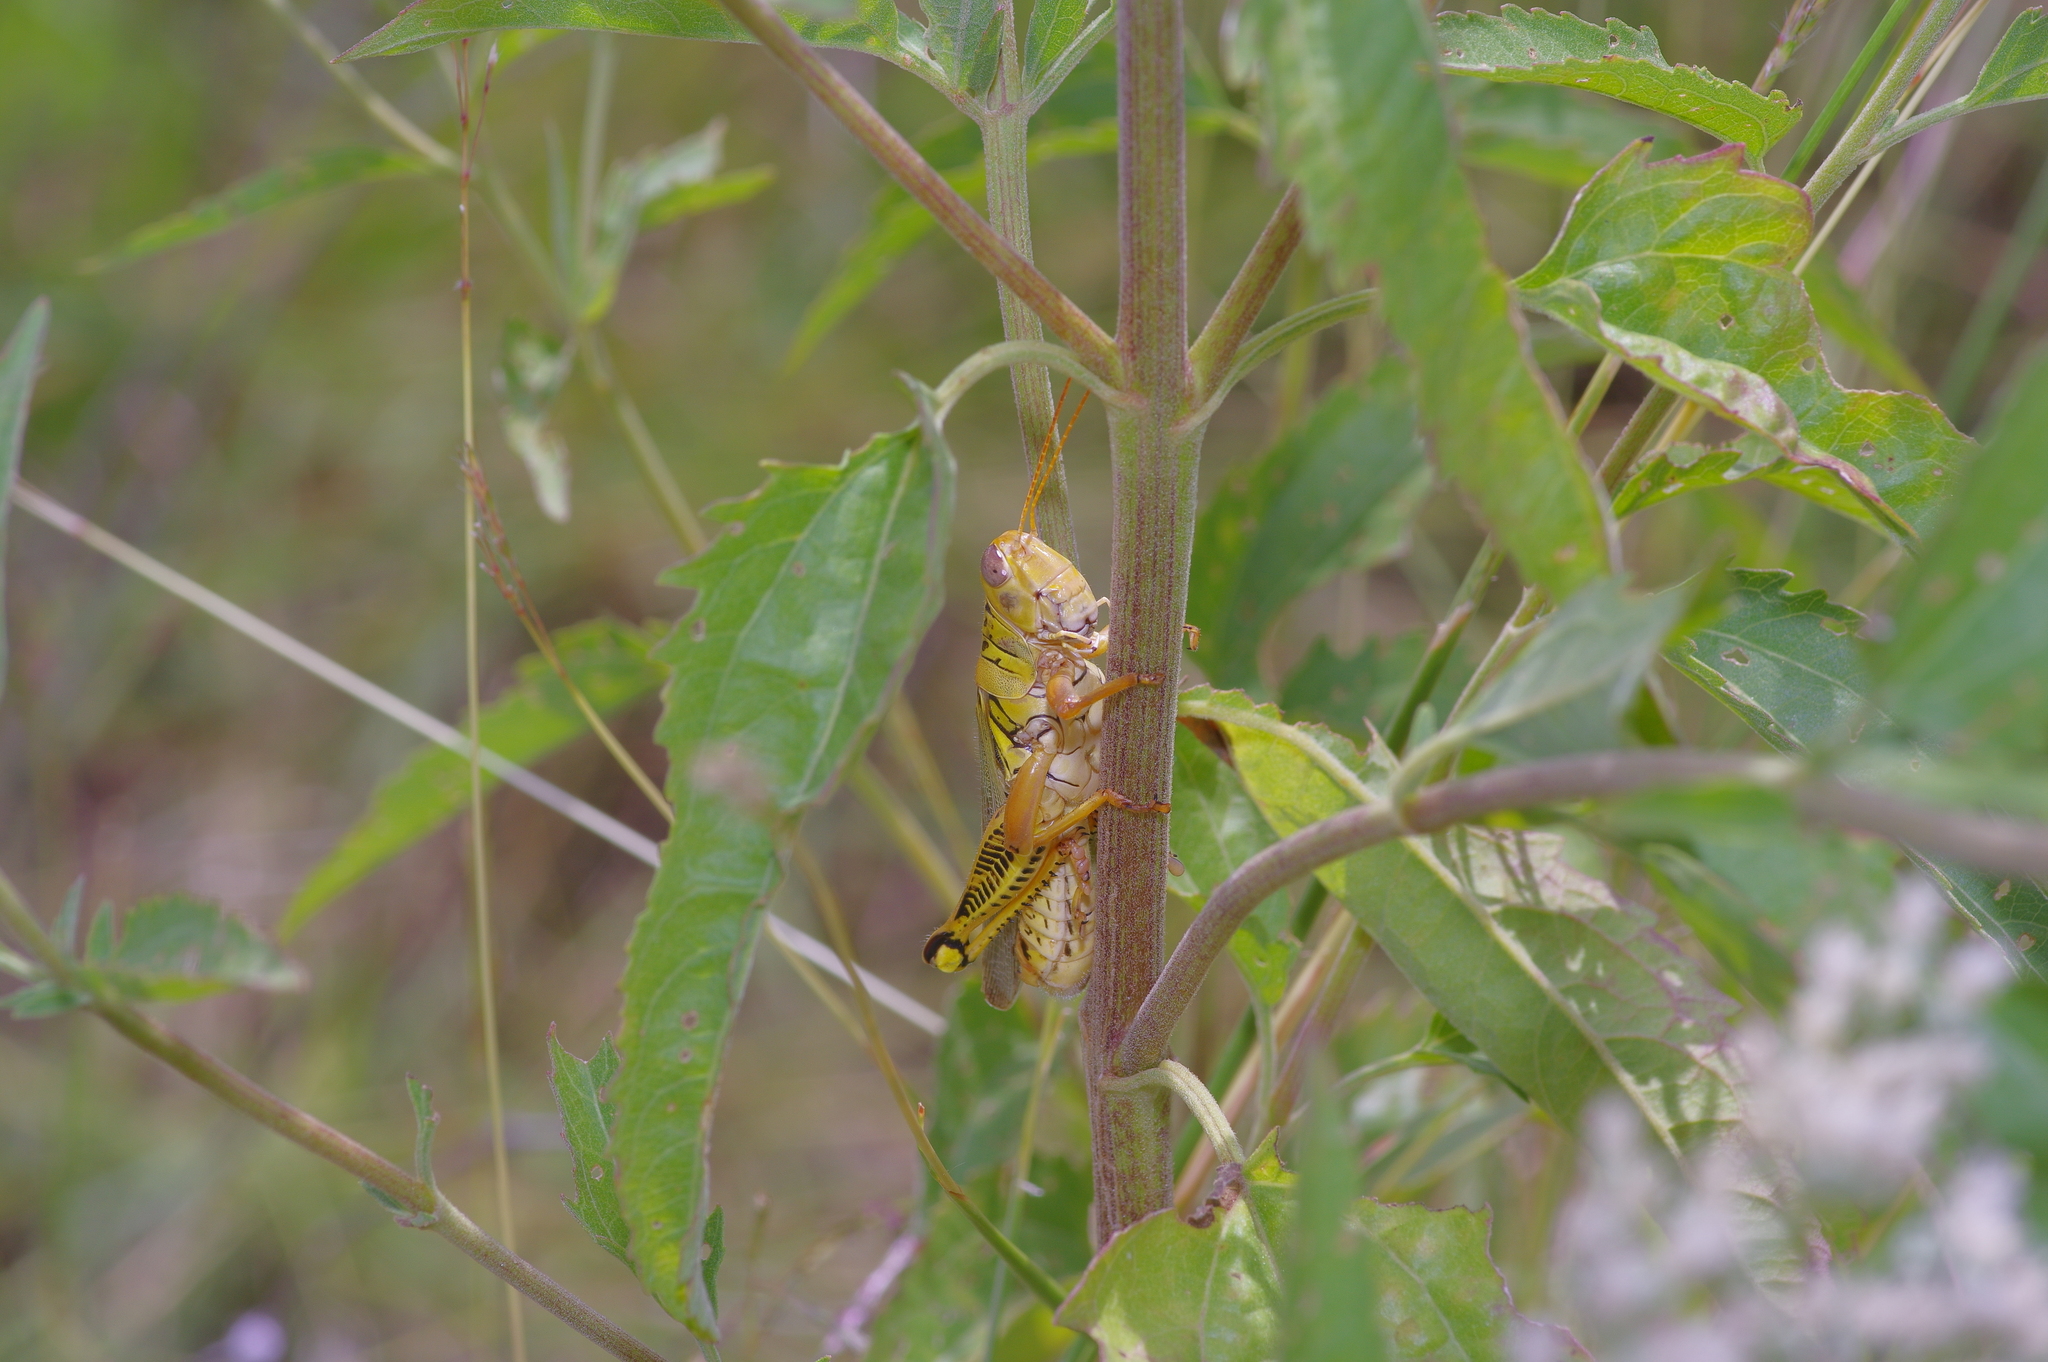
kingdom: Animalia
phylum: Arthropoda
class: Insecta
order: Orthoptera
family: Acrididae
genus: Melanoplus
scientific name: Melanoplus differentialis
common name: Differential grasshopper
